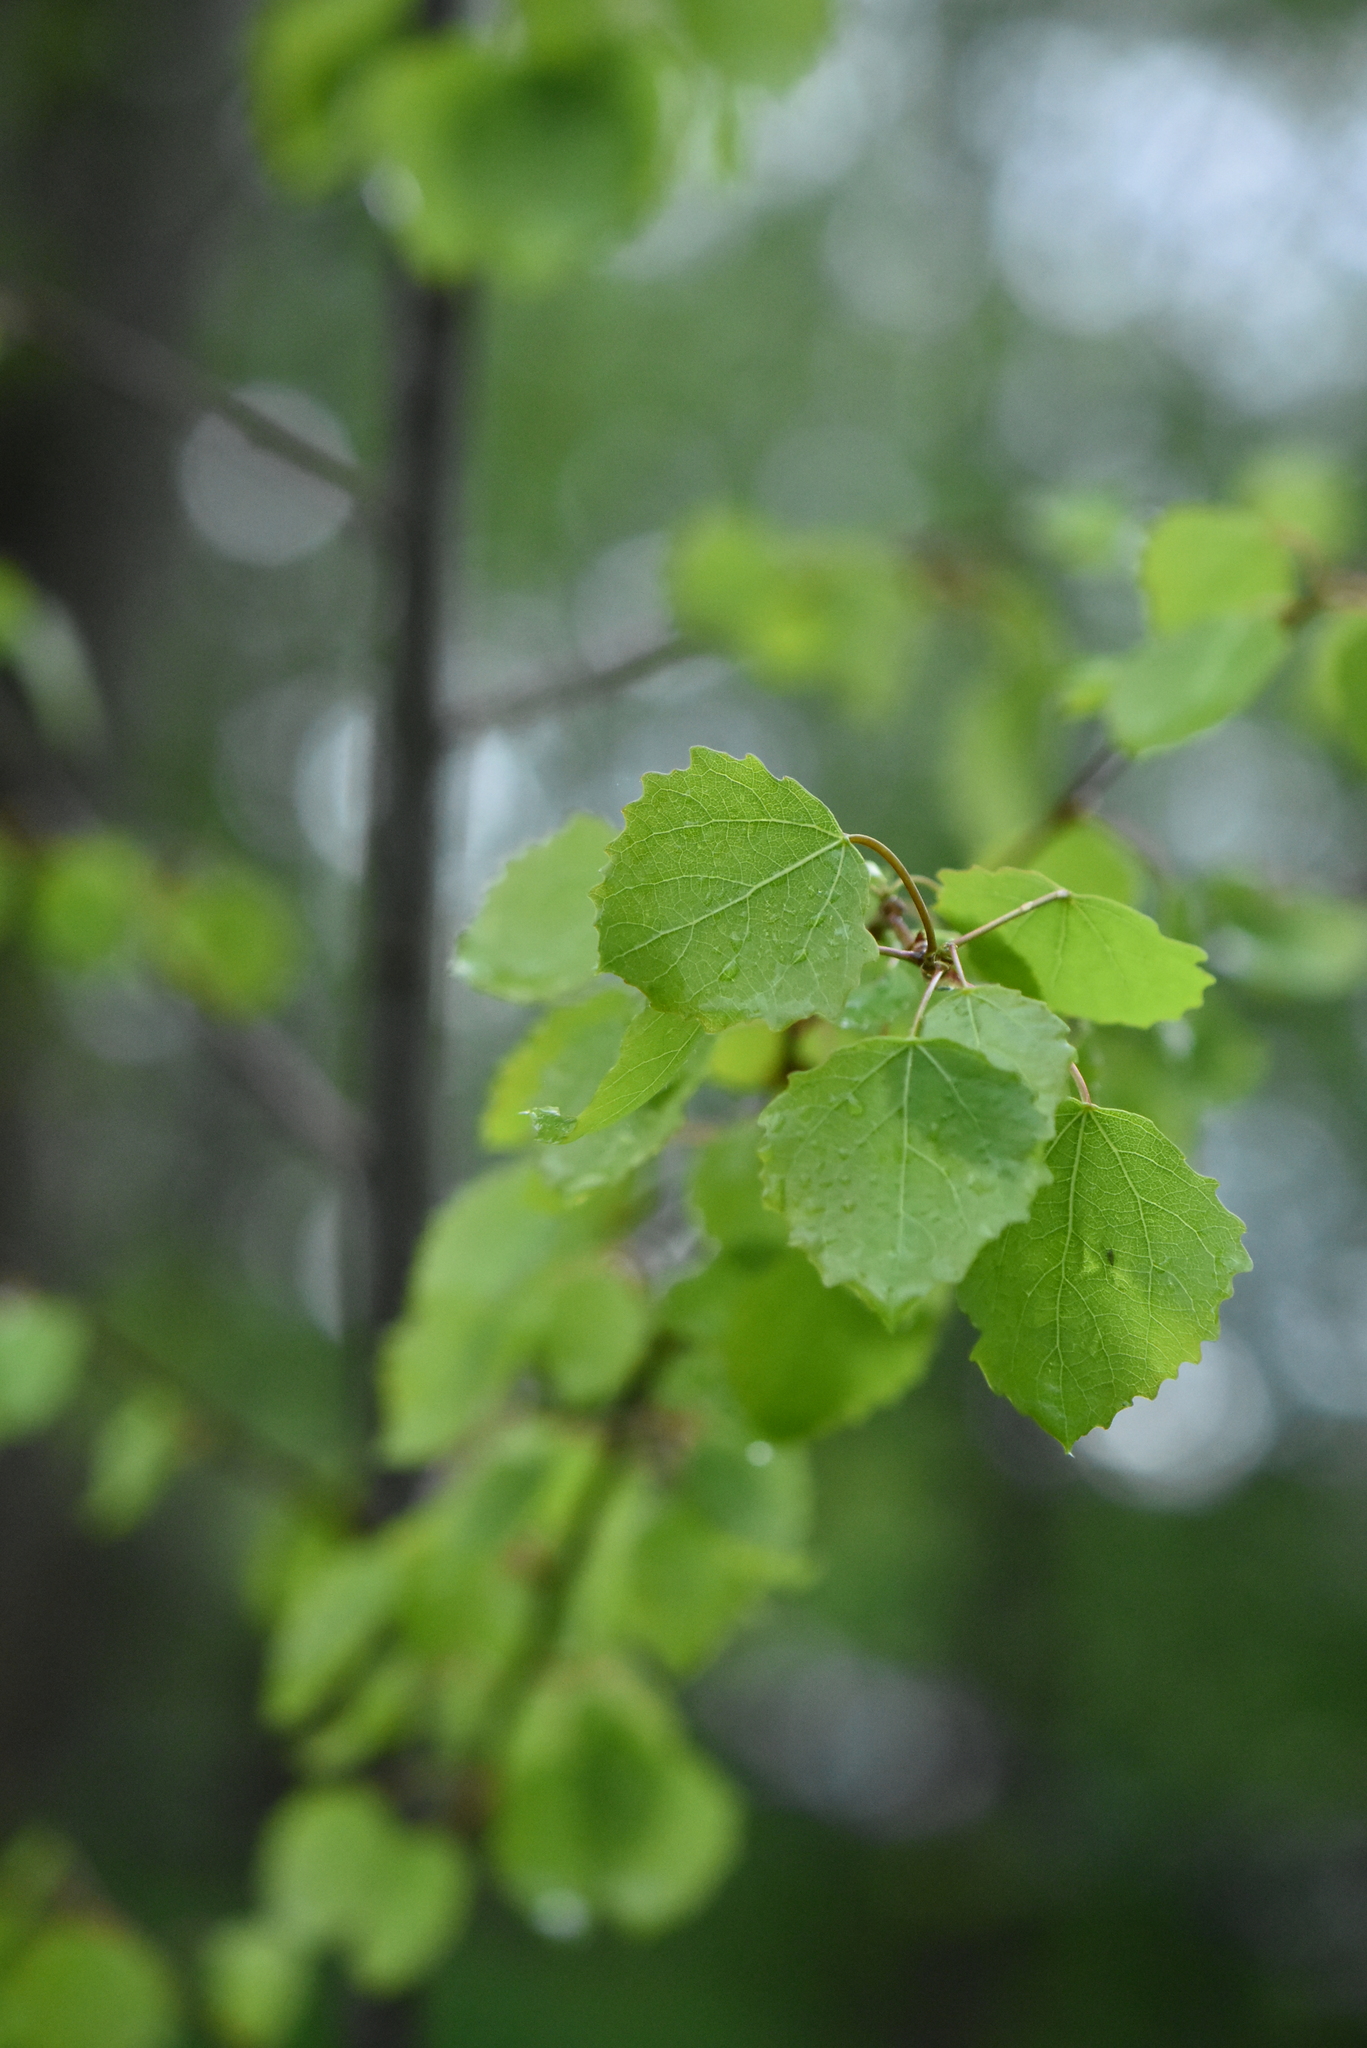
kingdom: Plantae
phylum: Tracheophyta
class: Magnoliopsida
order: Malpighiales
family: Salicaceae
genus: Populus
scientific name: Populus tremula
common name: European aspen
